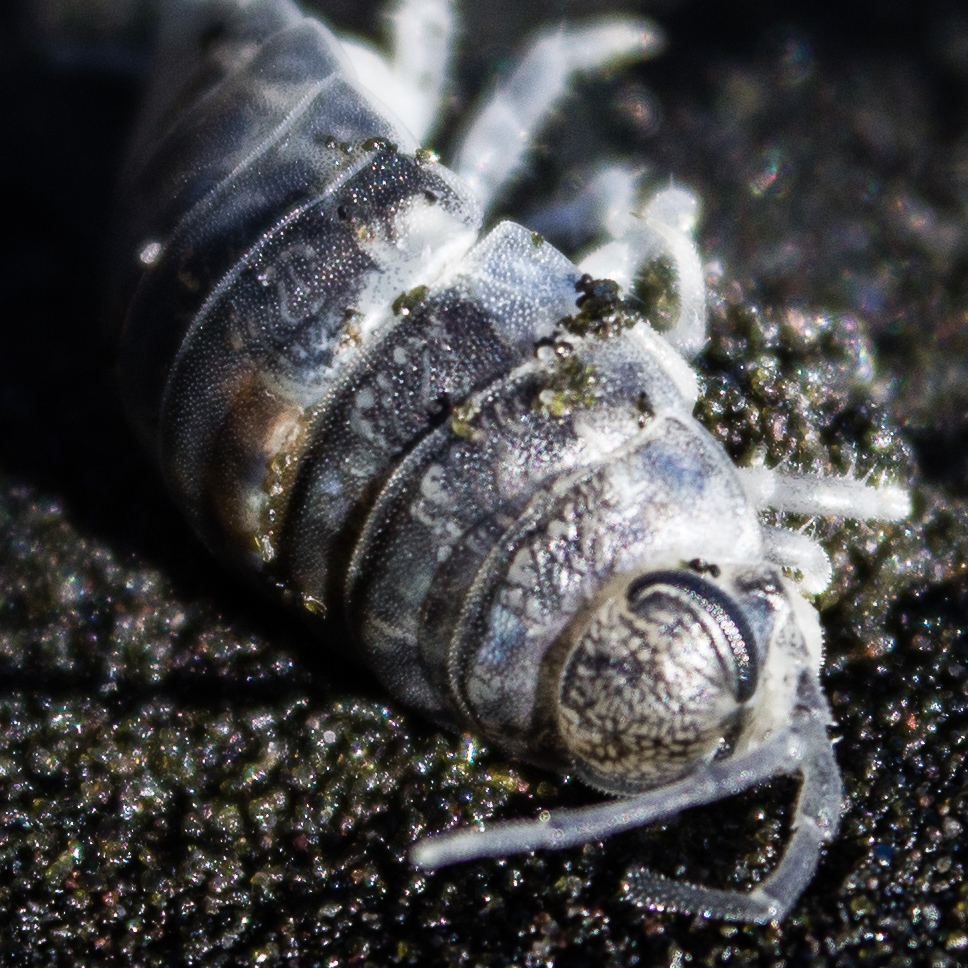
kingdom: Animalia
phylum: Arthropoda
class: Malacostraca
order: Isopoda
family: Scyphacidae
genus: Scyphax
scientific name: Scyphax ornatus
